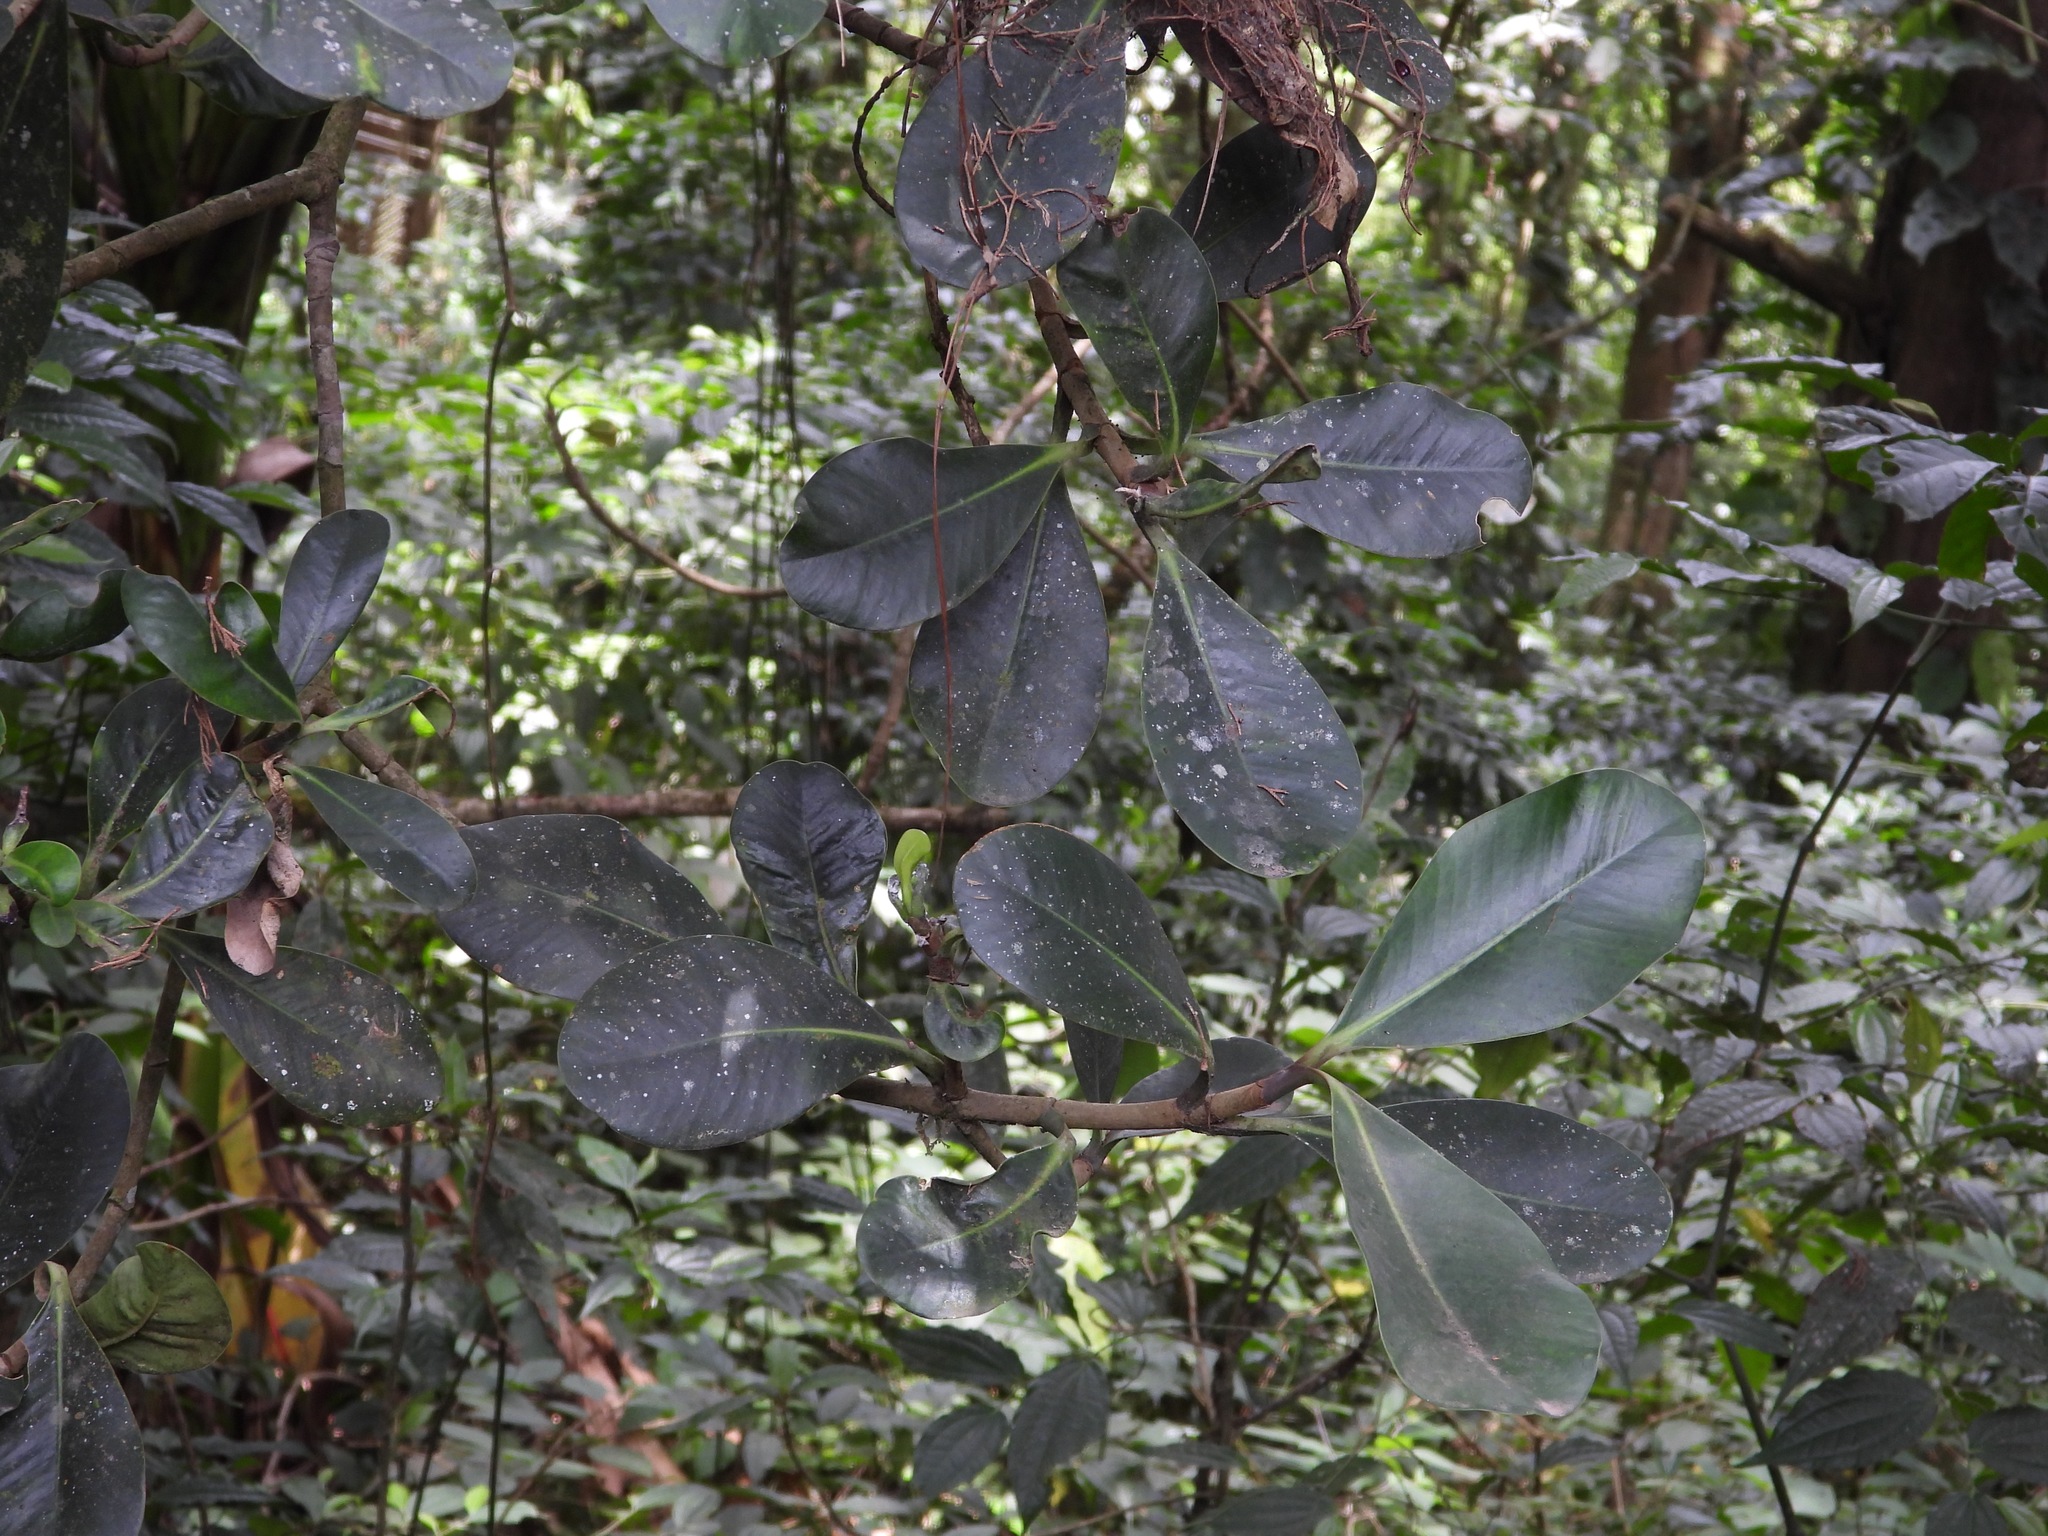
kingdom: Plantae
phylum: Tracheophyta
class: Magnoliopsida
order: Malpighiales
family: Clusiaceae
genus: Clusia
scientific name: Clusia salvinii
